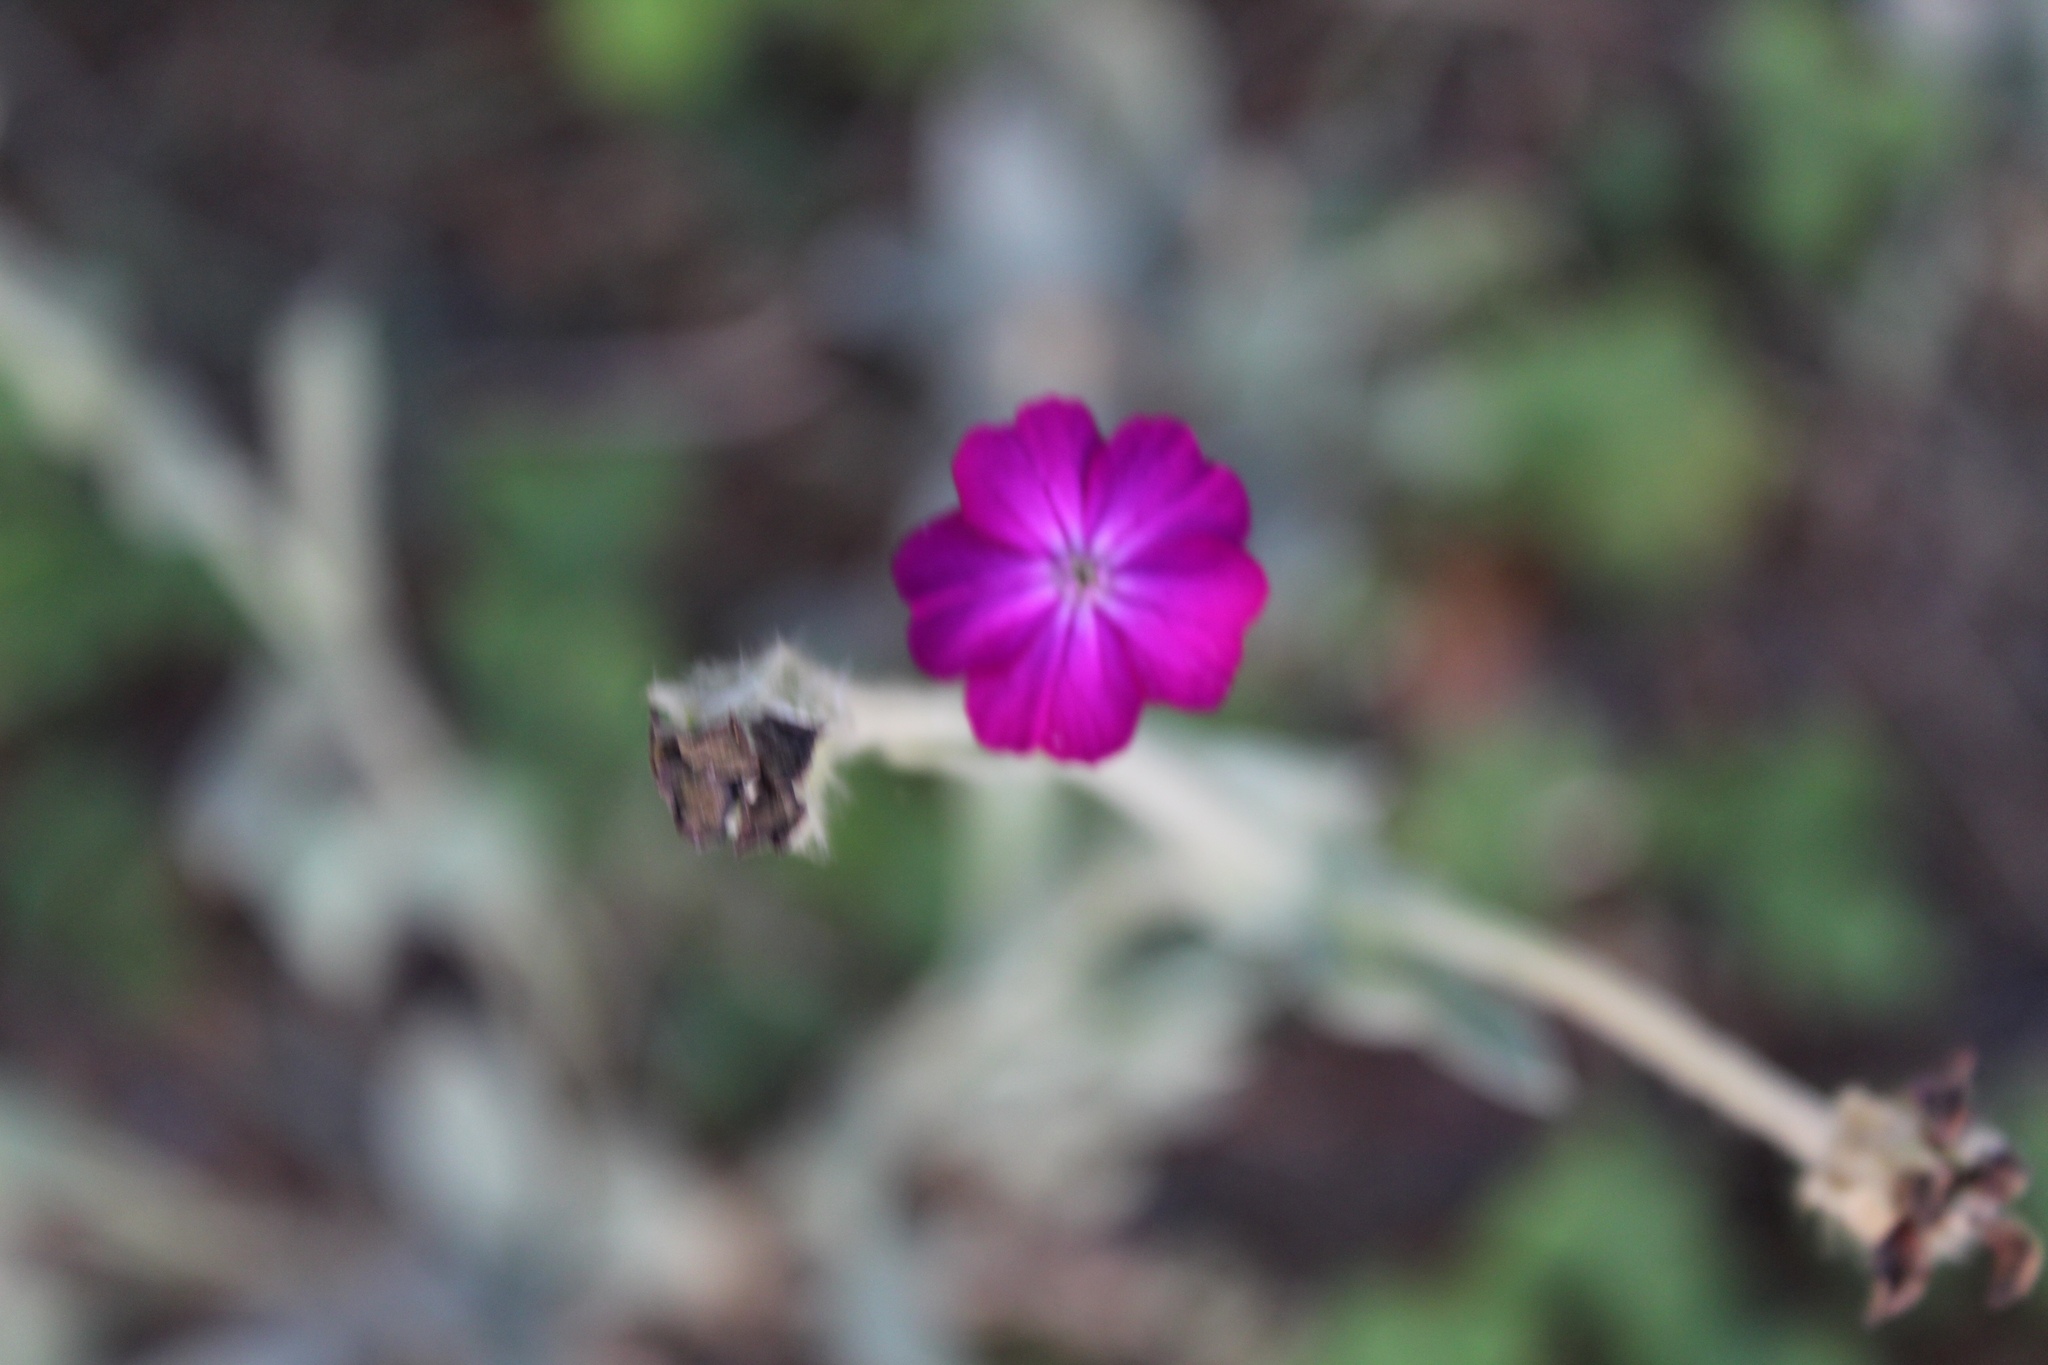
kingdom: Plantae
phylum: Tracheophyta
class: Magnoliopsida
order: Caryophyllales
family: Caryophyllaceae
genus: Silene
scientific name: Silene coronaria
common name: Rose campion
